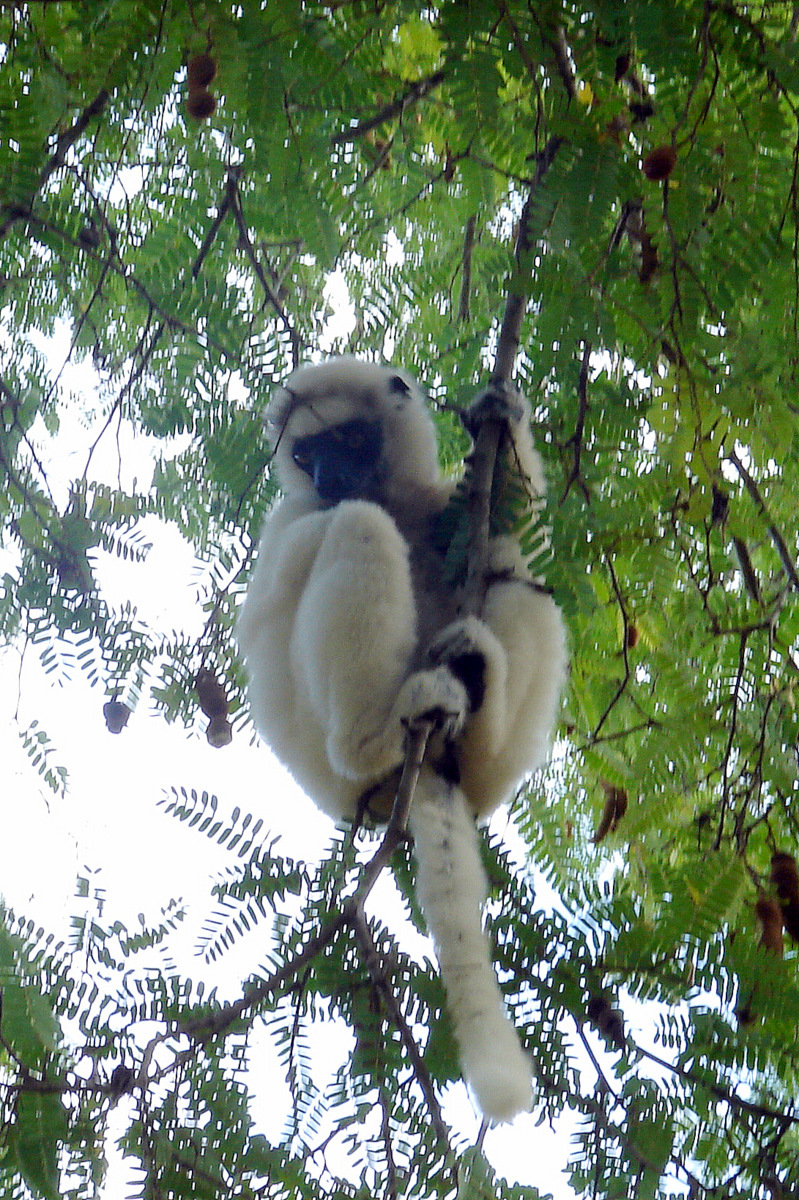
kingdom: Animalia
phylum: Chordata
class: Mammalia
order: Primates
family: Indriidae
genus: Propithecus
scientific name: Propithecus verreauxi
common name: Verreaux's sifaka
